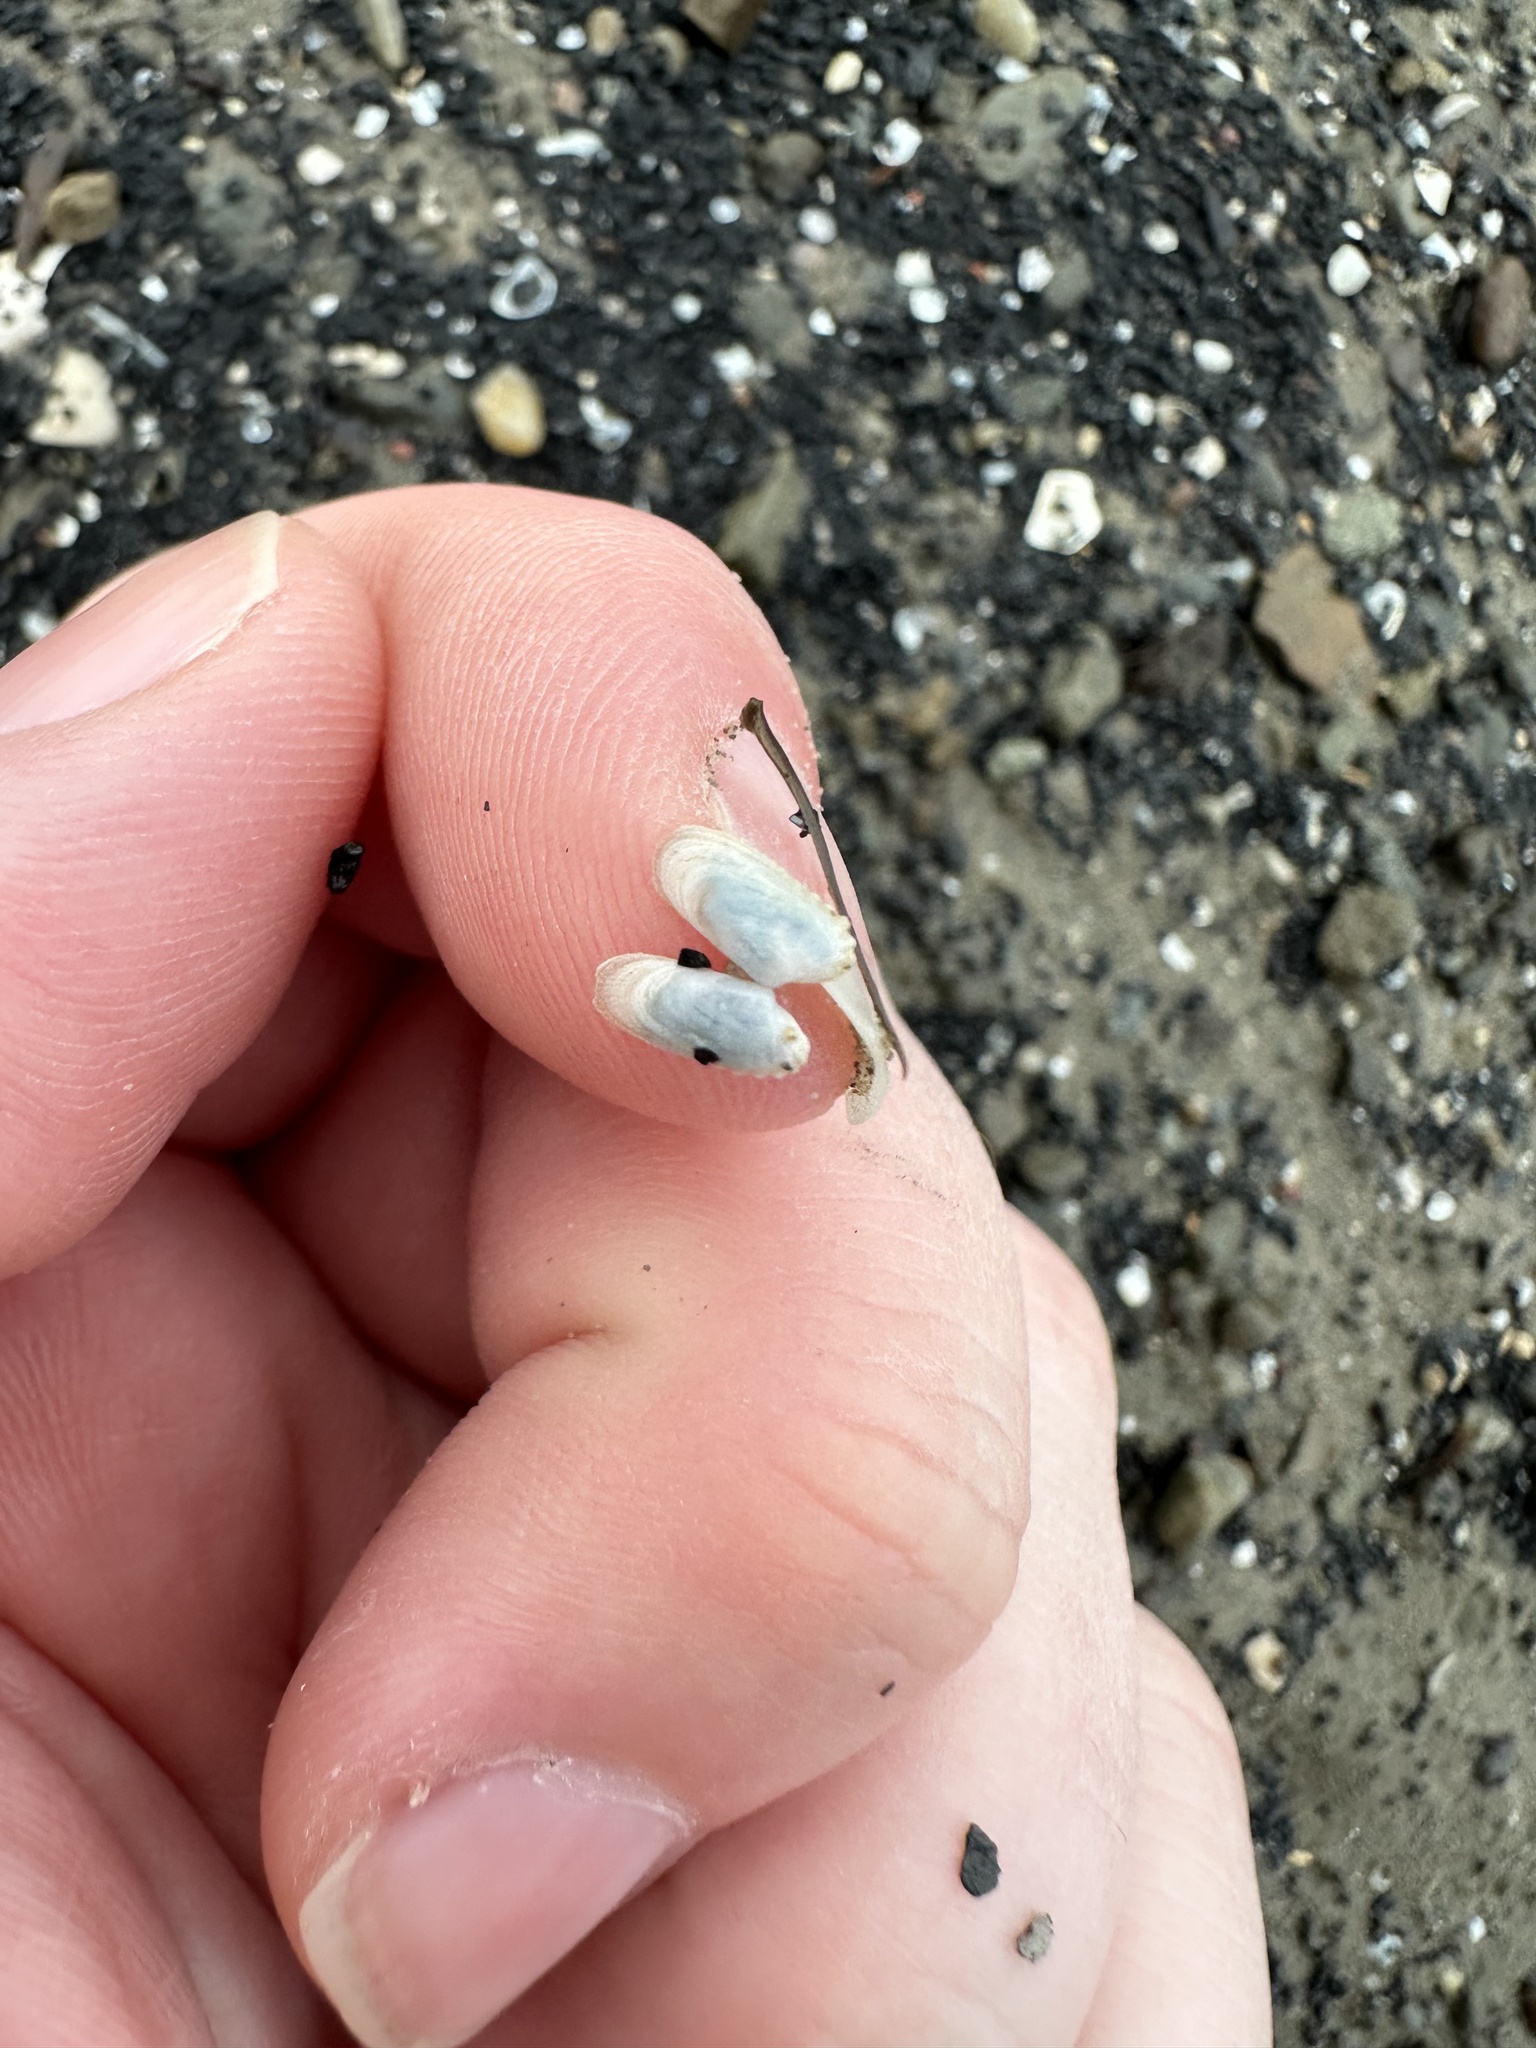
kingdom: Animalia
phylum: Mollusca
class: Bivalvia
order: Venerida
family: Veneridae
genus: Petricolaria
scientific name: Petricolaria pholadiformis
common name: American piddock
